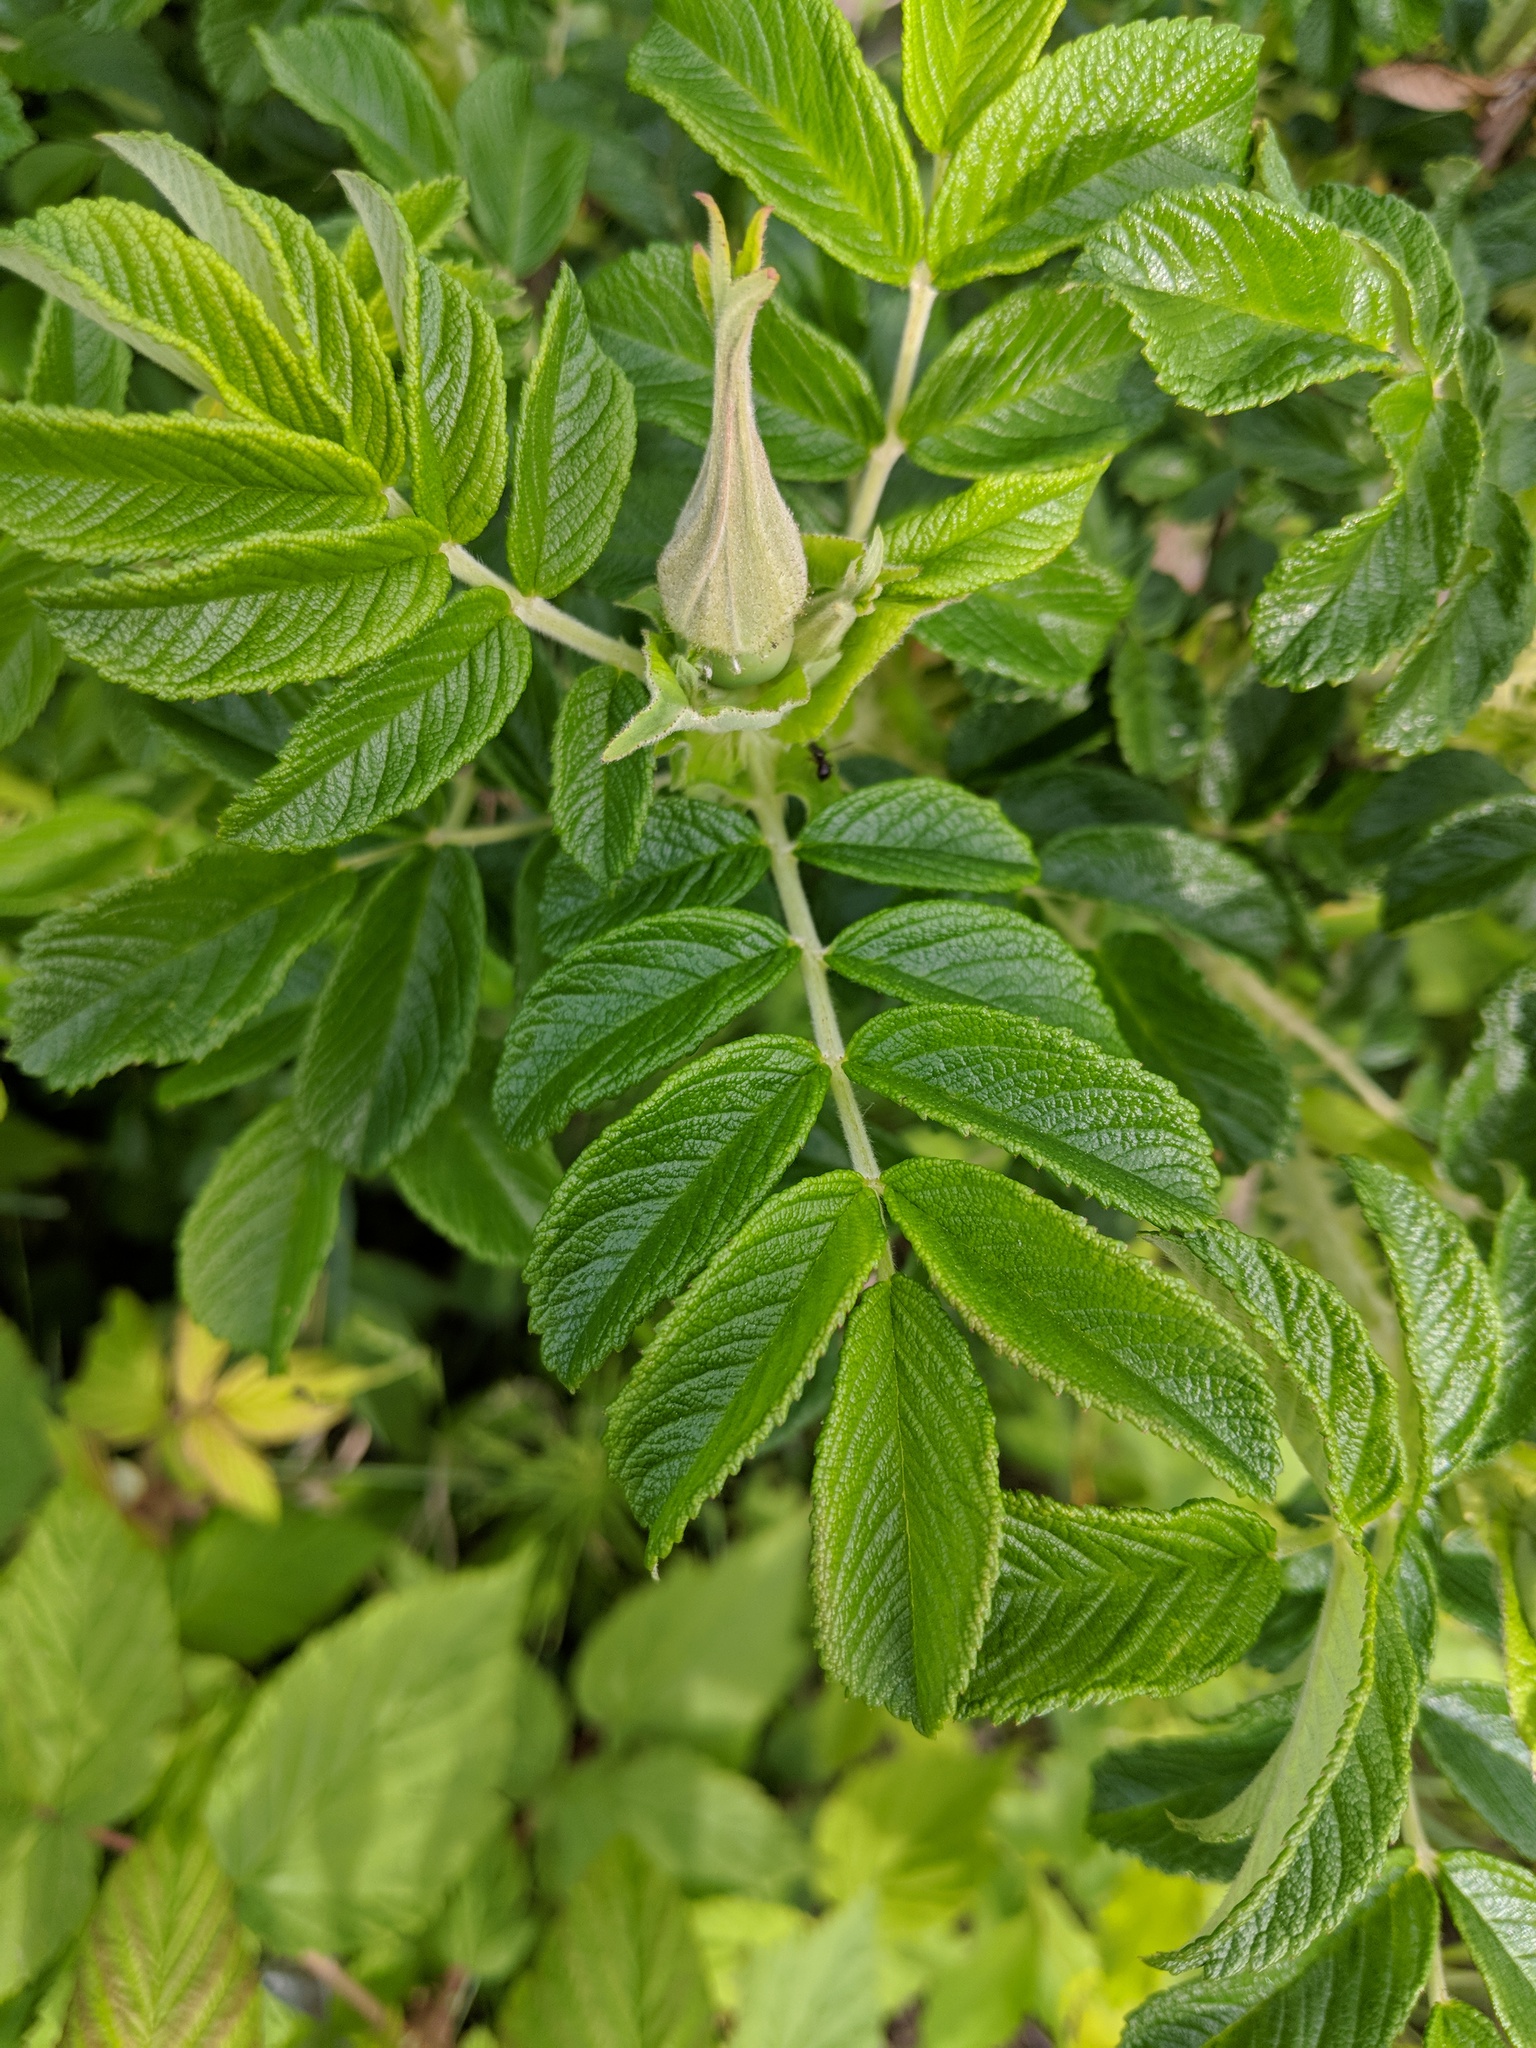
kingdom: Plantae
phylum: Tracheophyta
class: Magnoliopsida
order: Rosales
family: Rosaceae
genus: Rosa
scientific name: Rosa rugosa
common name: Japanese rose
